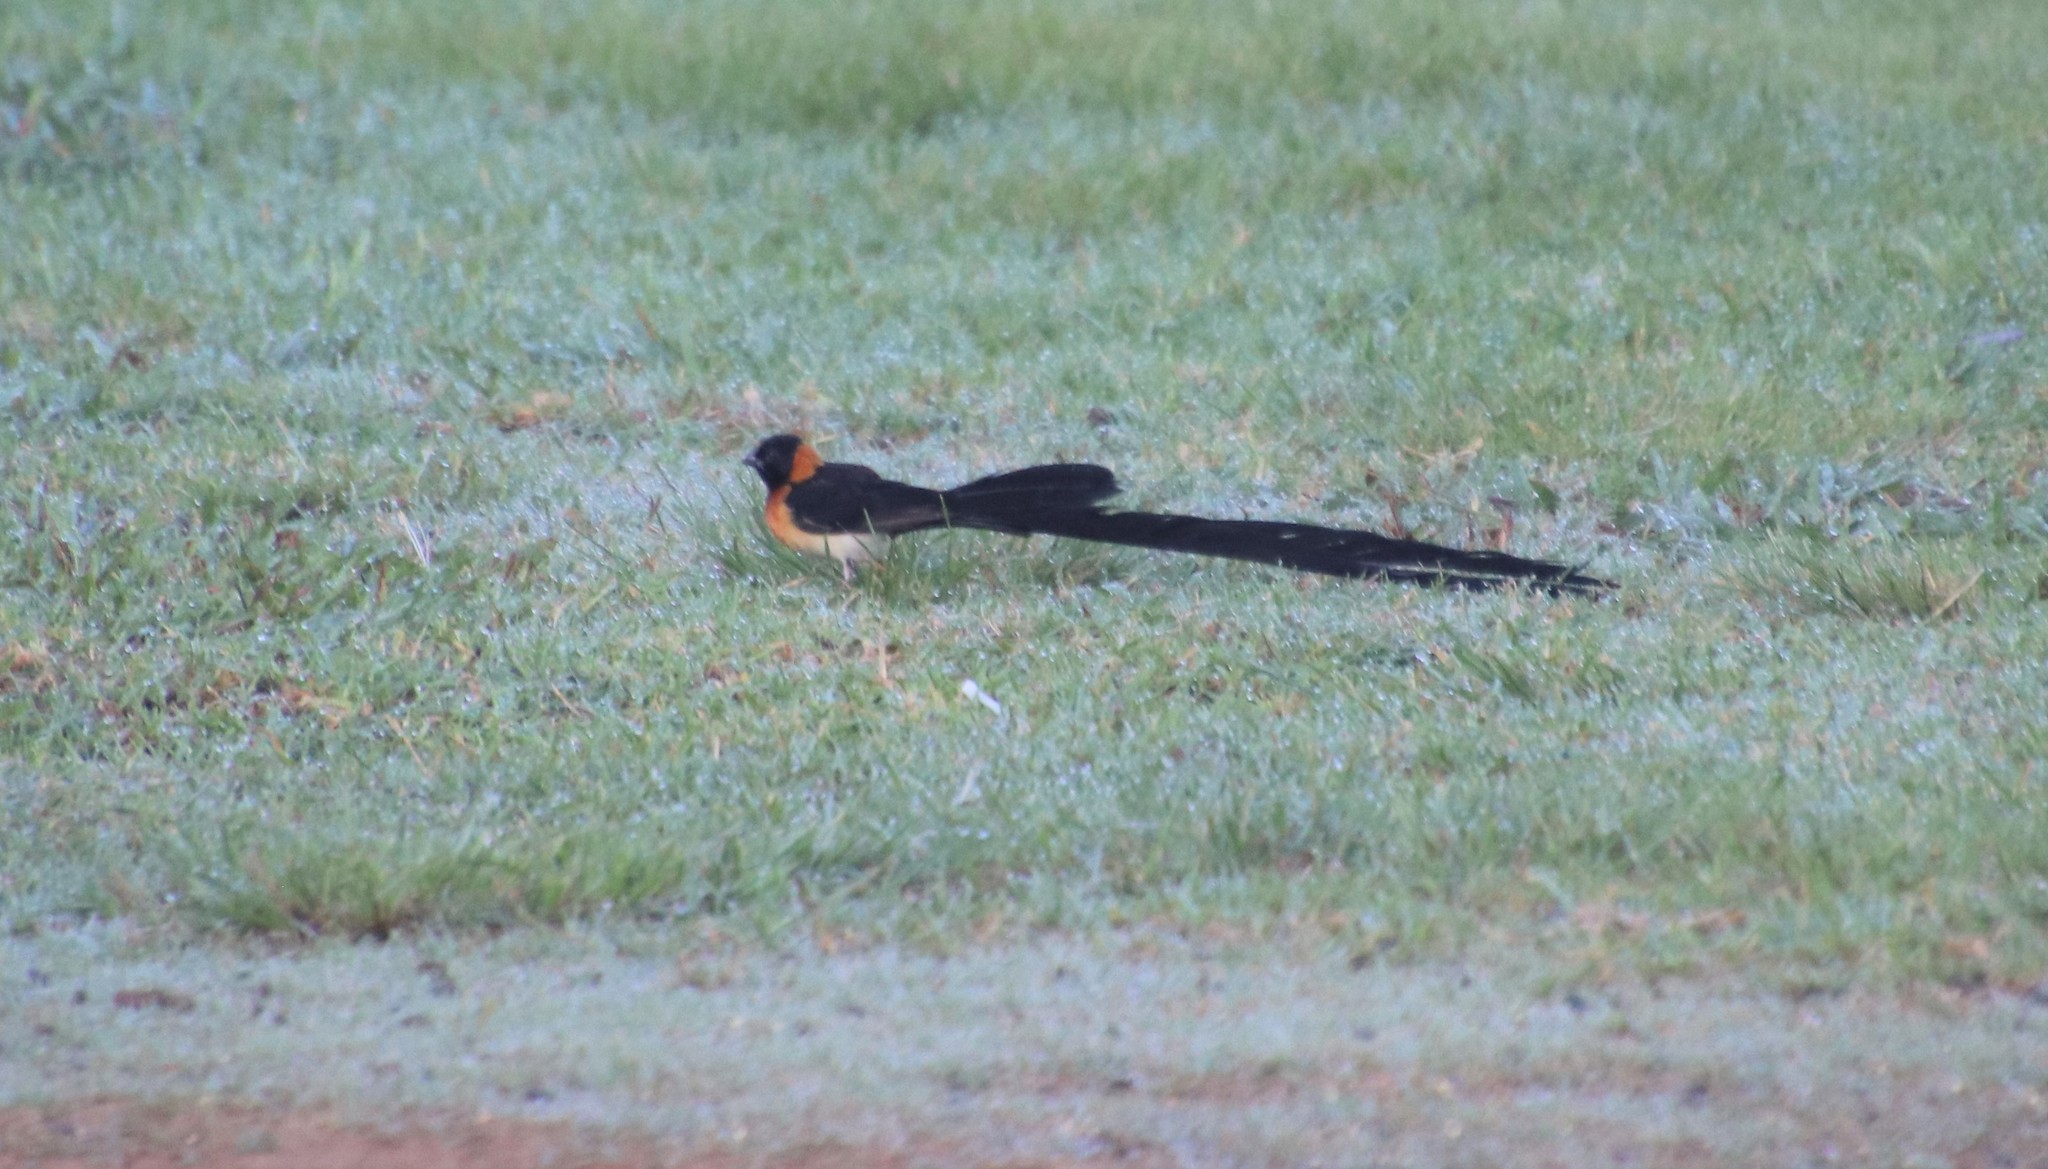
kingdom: Animalia
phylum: Chordata
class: Aves
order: Passeriformes
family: Viduidae
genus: Vidua
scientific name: Vidua obtusa
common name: Broad-tailed paradise whydah
